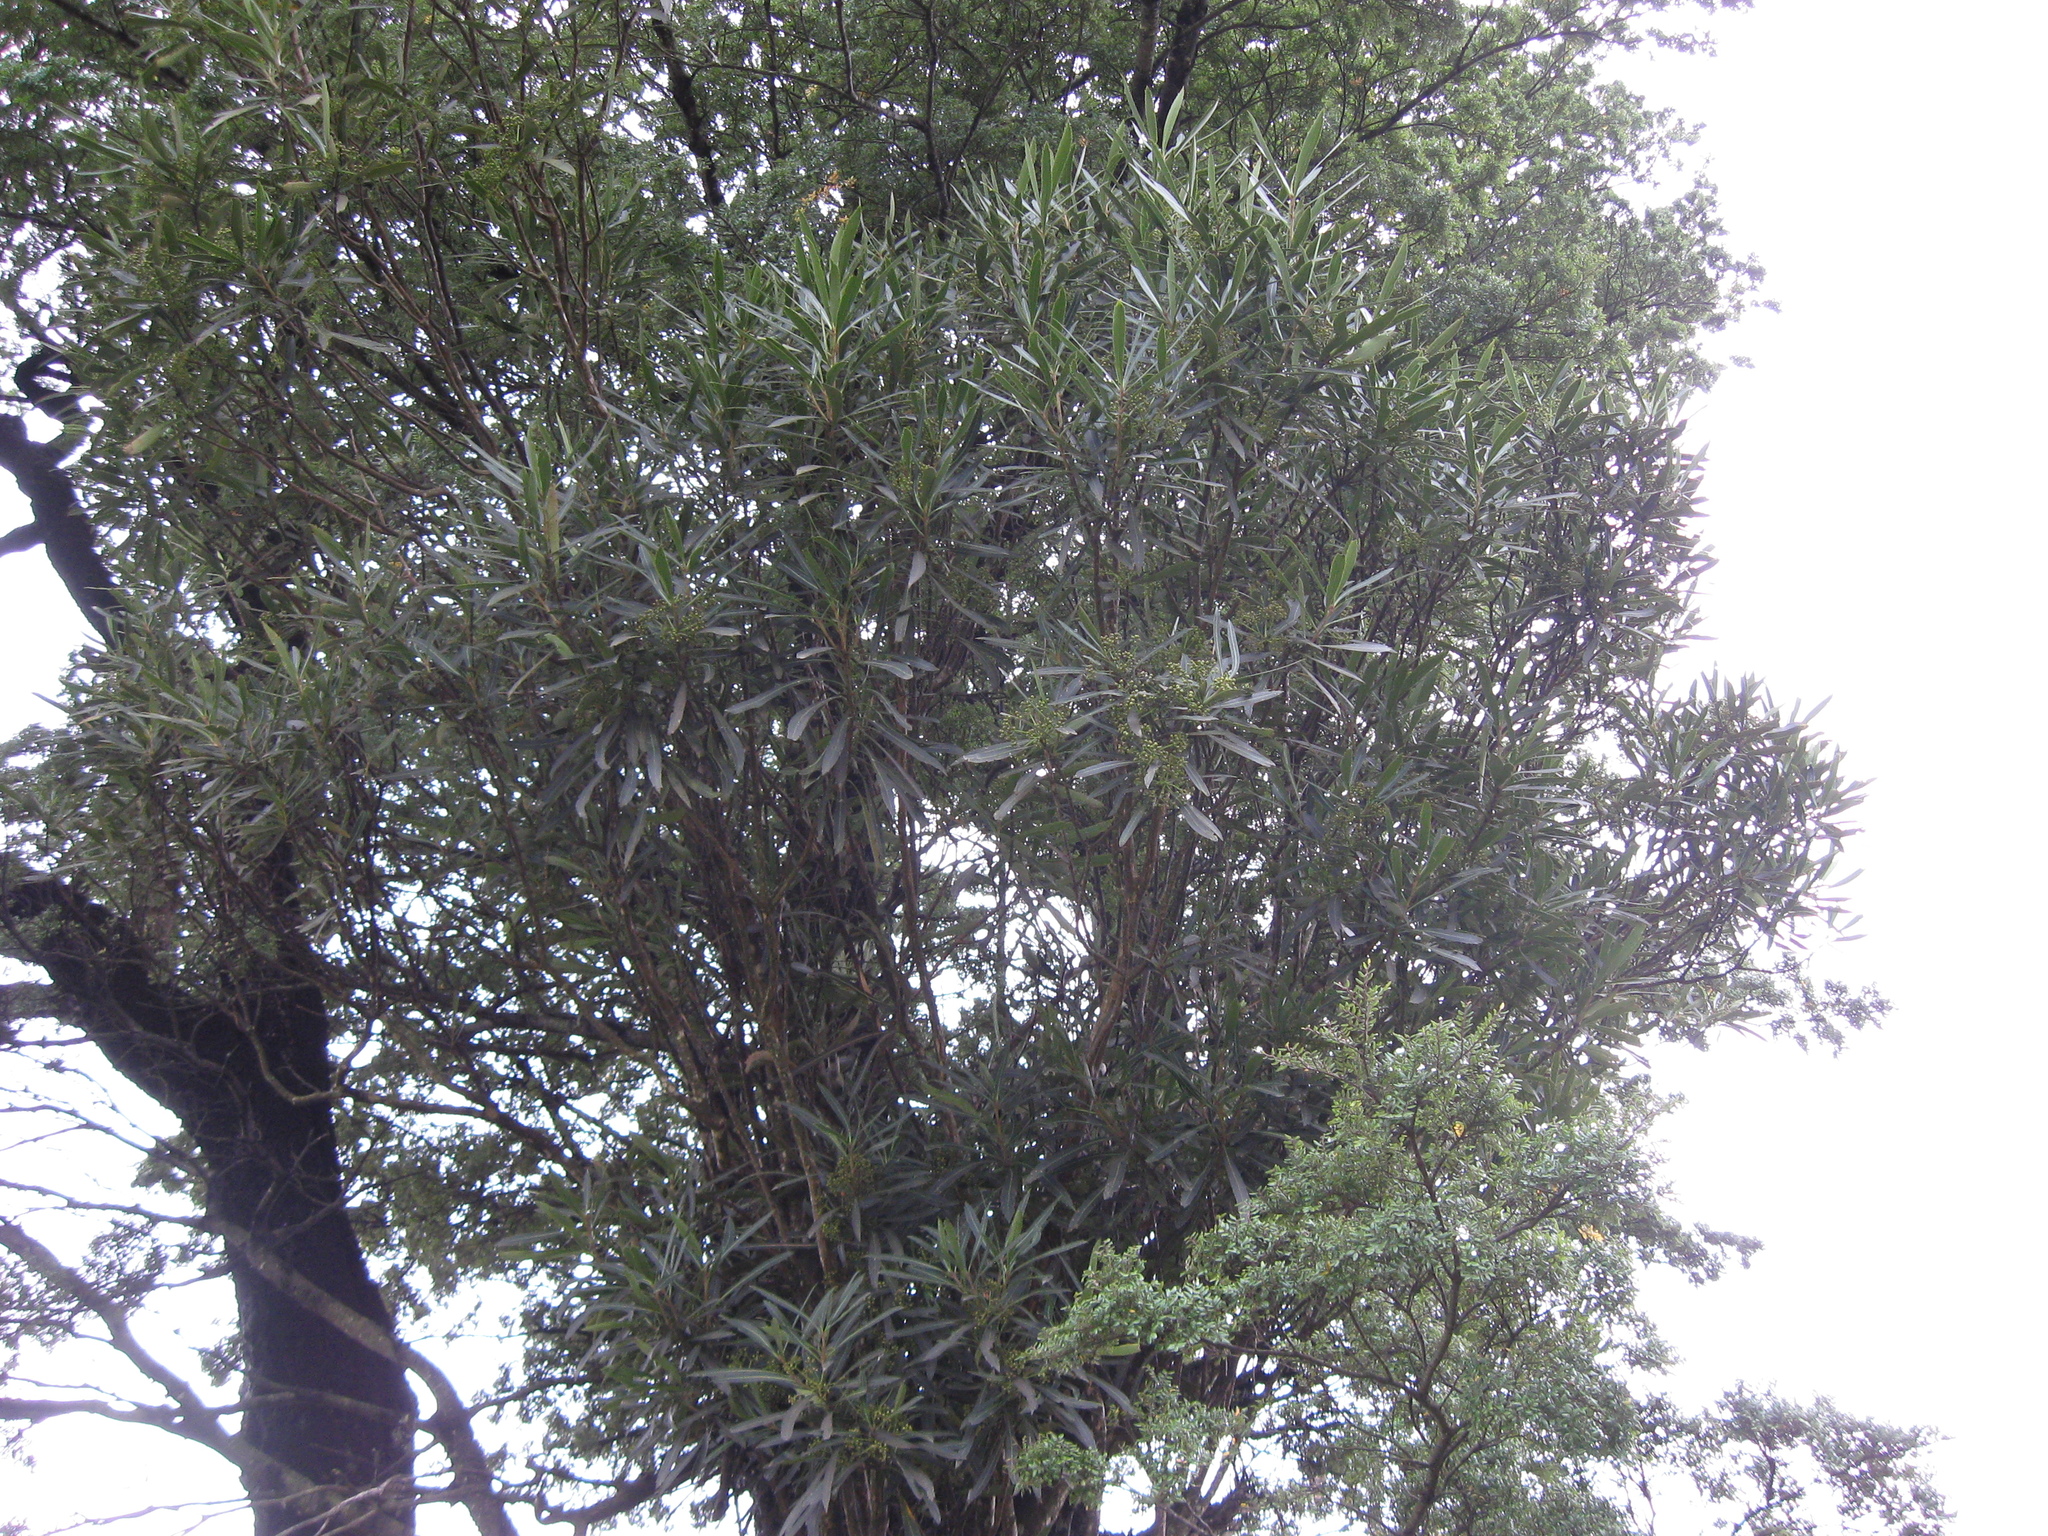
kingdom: Plantae
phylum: Tracheophyta
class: Magnoliopsida
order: Apiales
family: Araliaceae
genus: Pseudopanax
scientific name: Pseudopanax crassifolius
